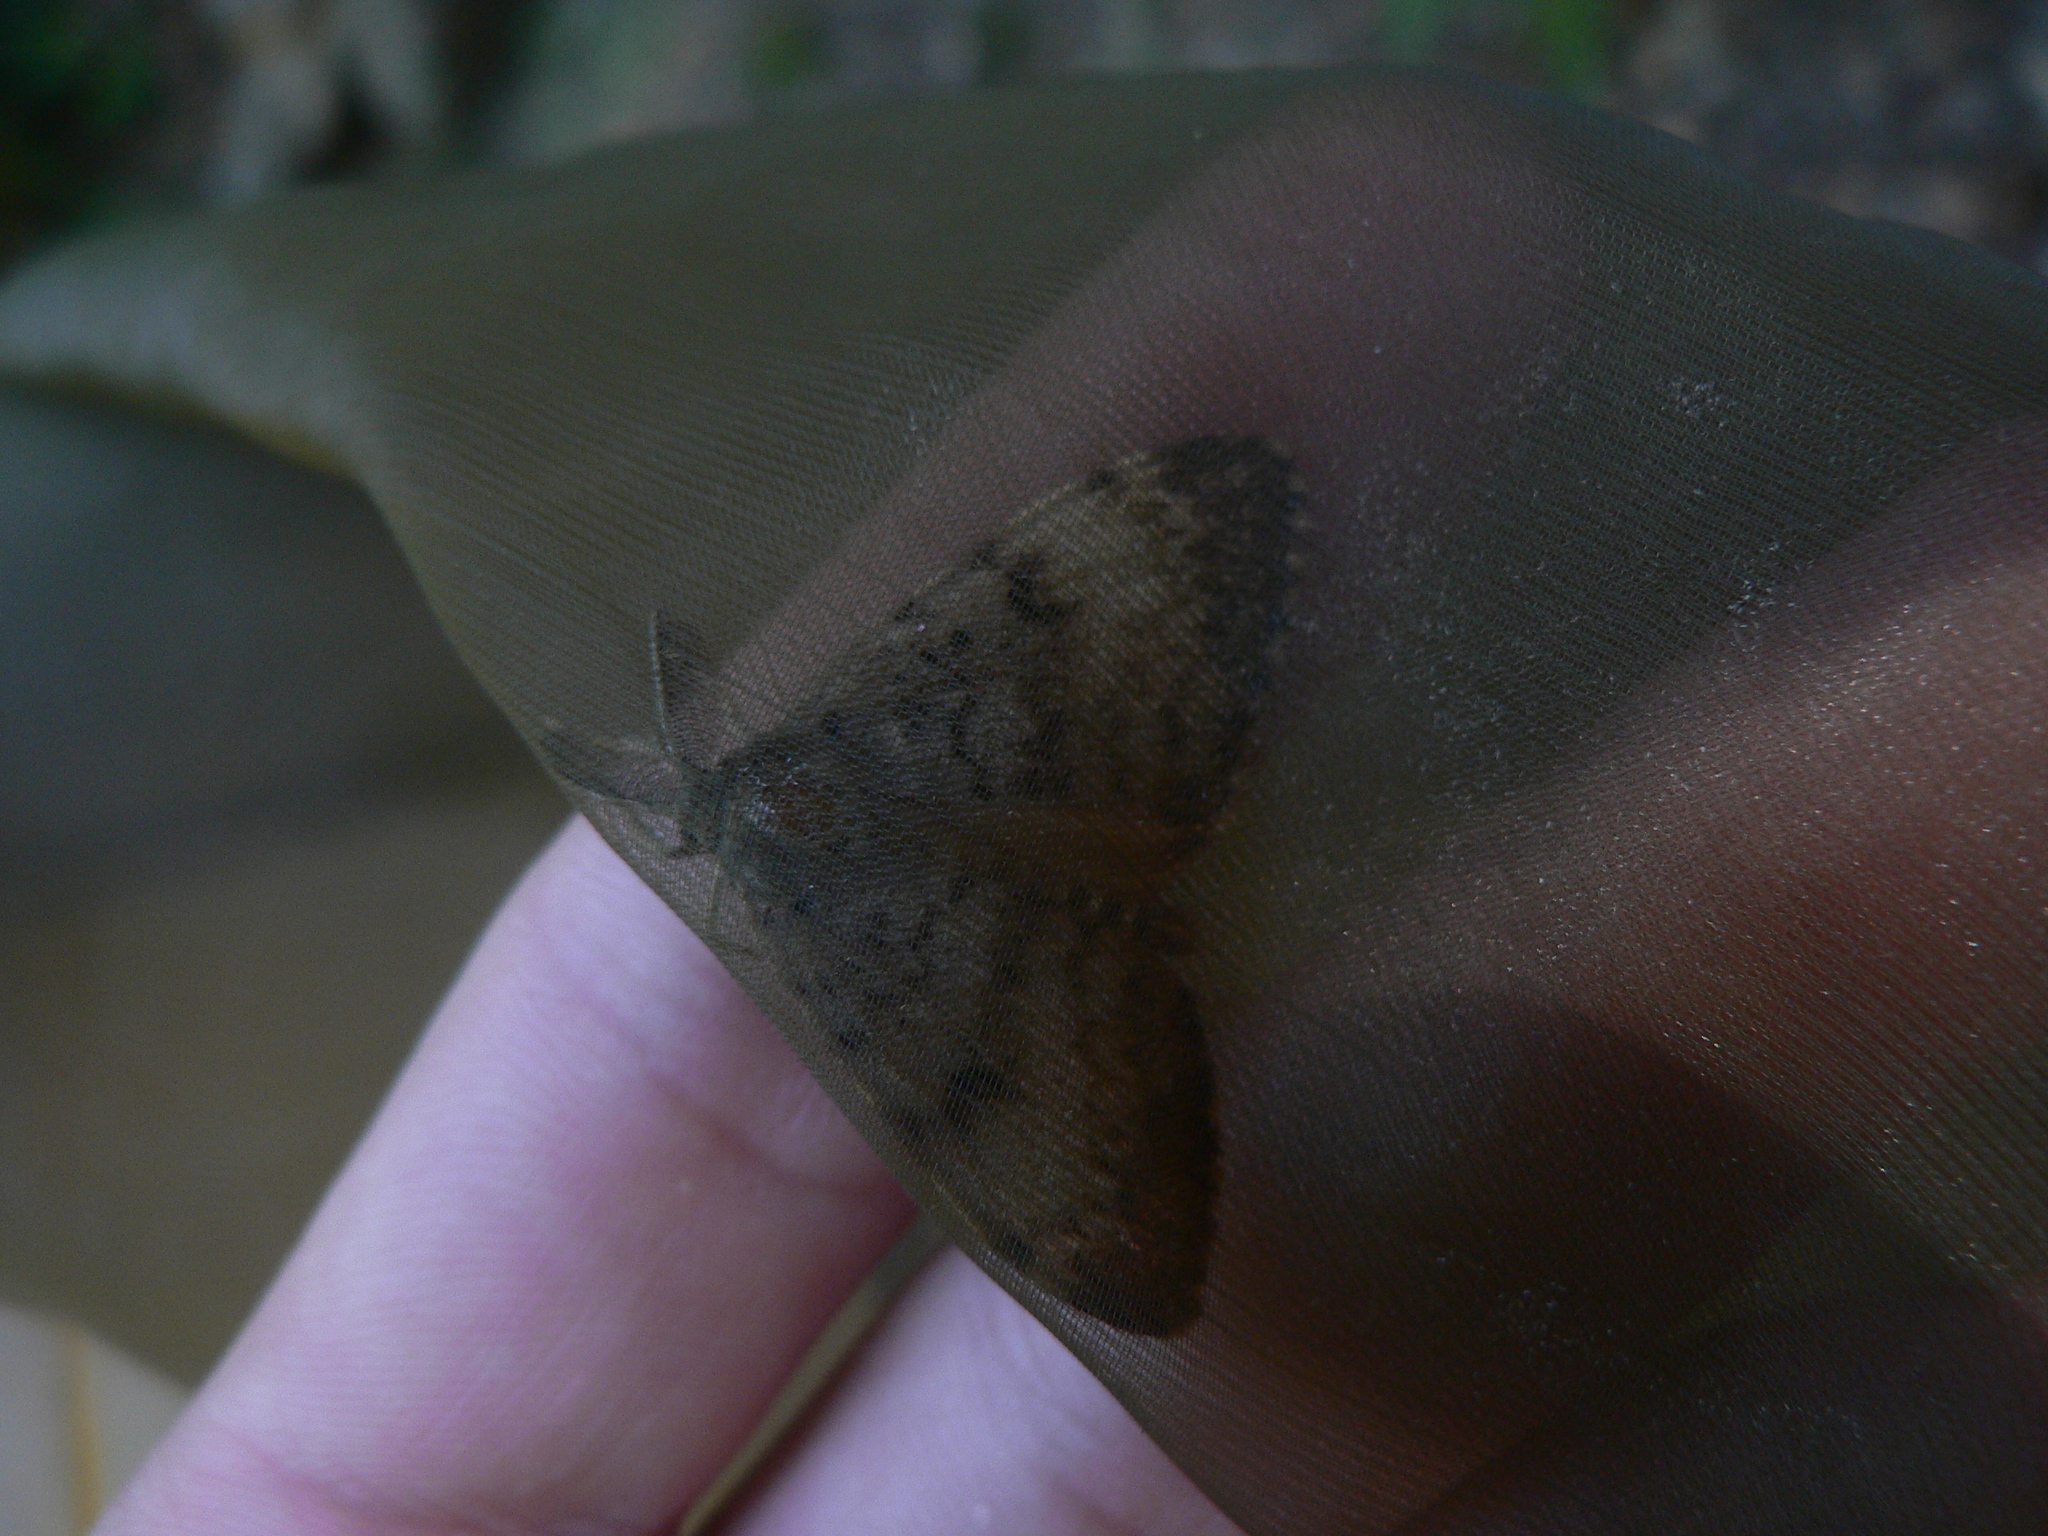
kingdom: Animalia
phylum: Arthropoda
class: Insecta
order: Lepidoptera
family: Erebidae
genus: Lymantria
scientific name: Lymantria dispar
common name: Gypsy moth
